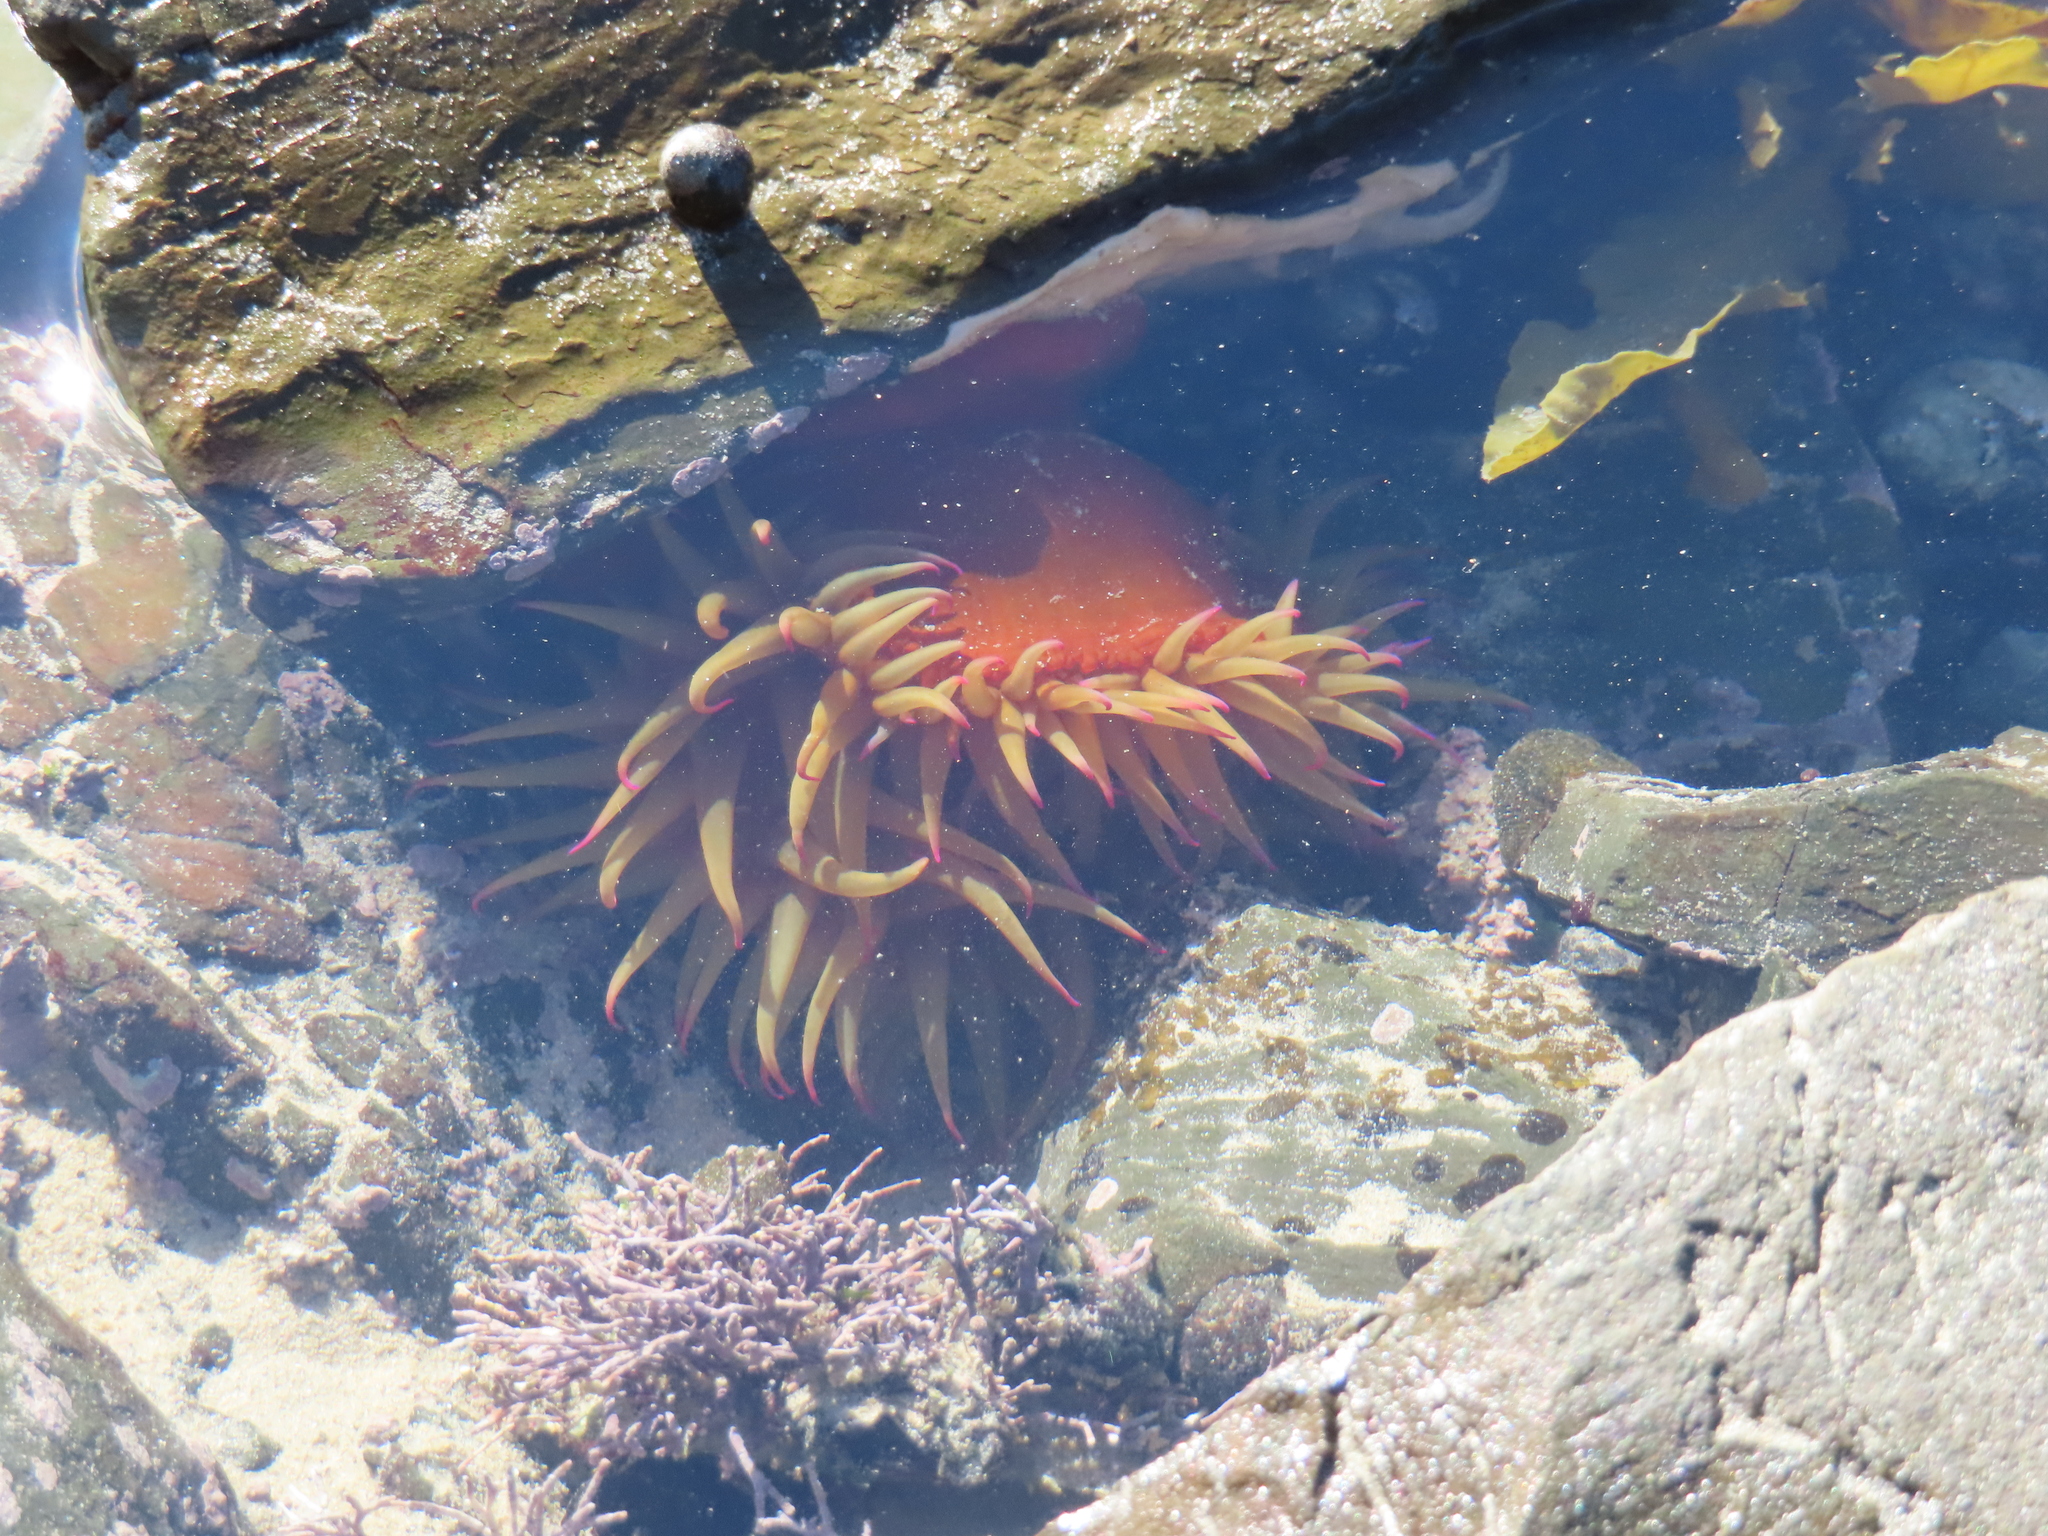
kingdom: Animalia
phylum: Cnidaria
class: Anthozoa
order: Actiniaria
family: Actiniidae
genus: Pseudactinia
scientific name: Pseudactinia flagellifera
